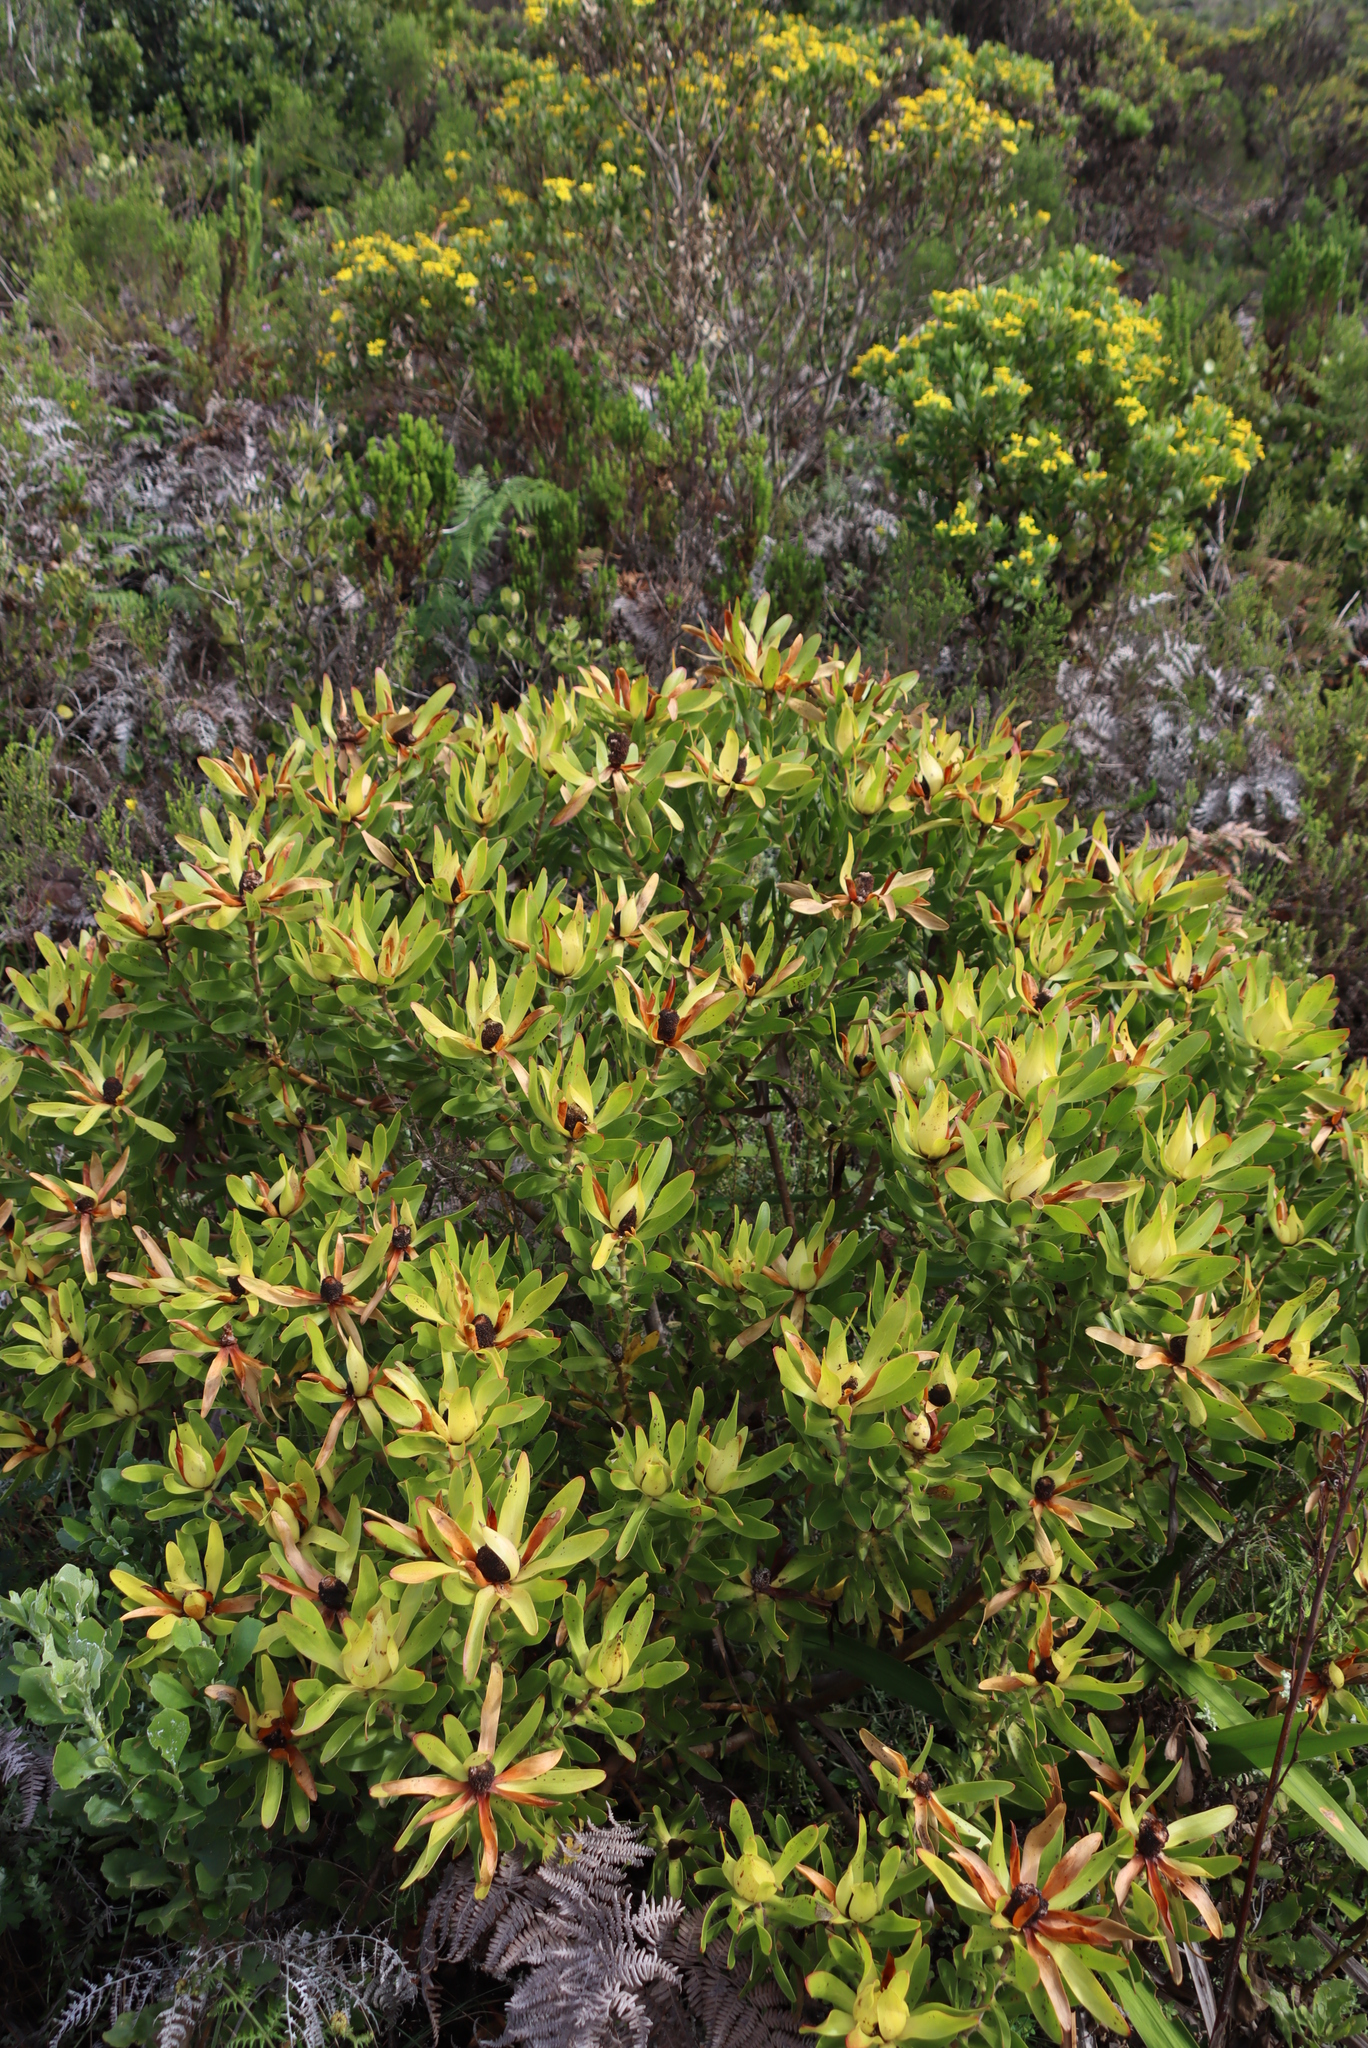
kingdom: Plantae
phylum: Tracheophyta
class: Magnoliopsida
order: Proteales
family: Proteaceae
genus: Leucadendron
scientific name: Leucadendron laureolum
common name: Golden sunshinebush
